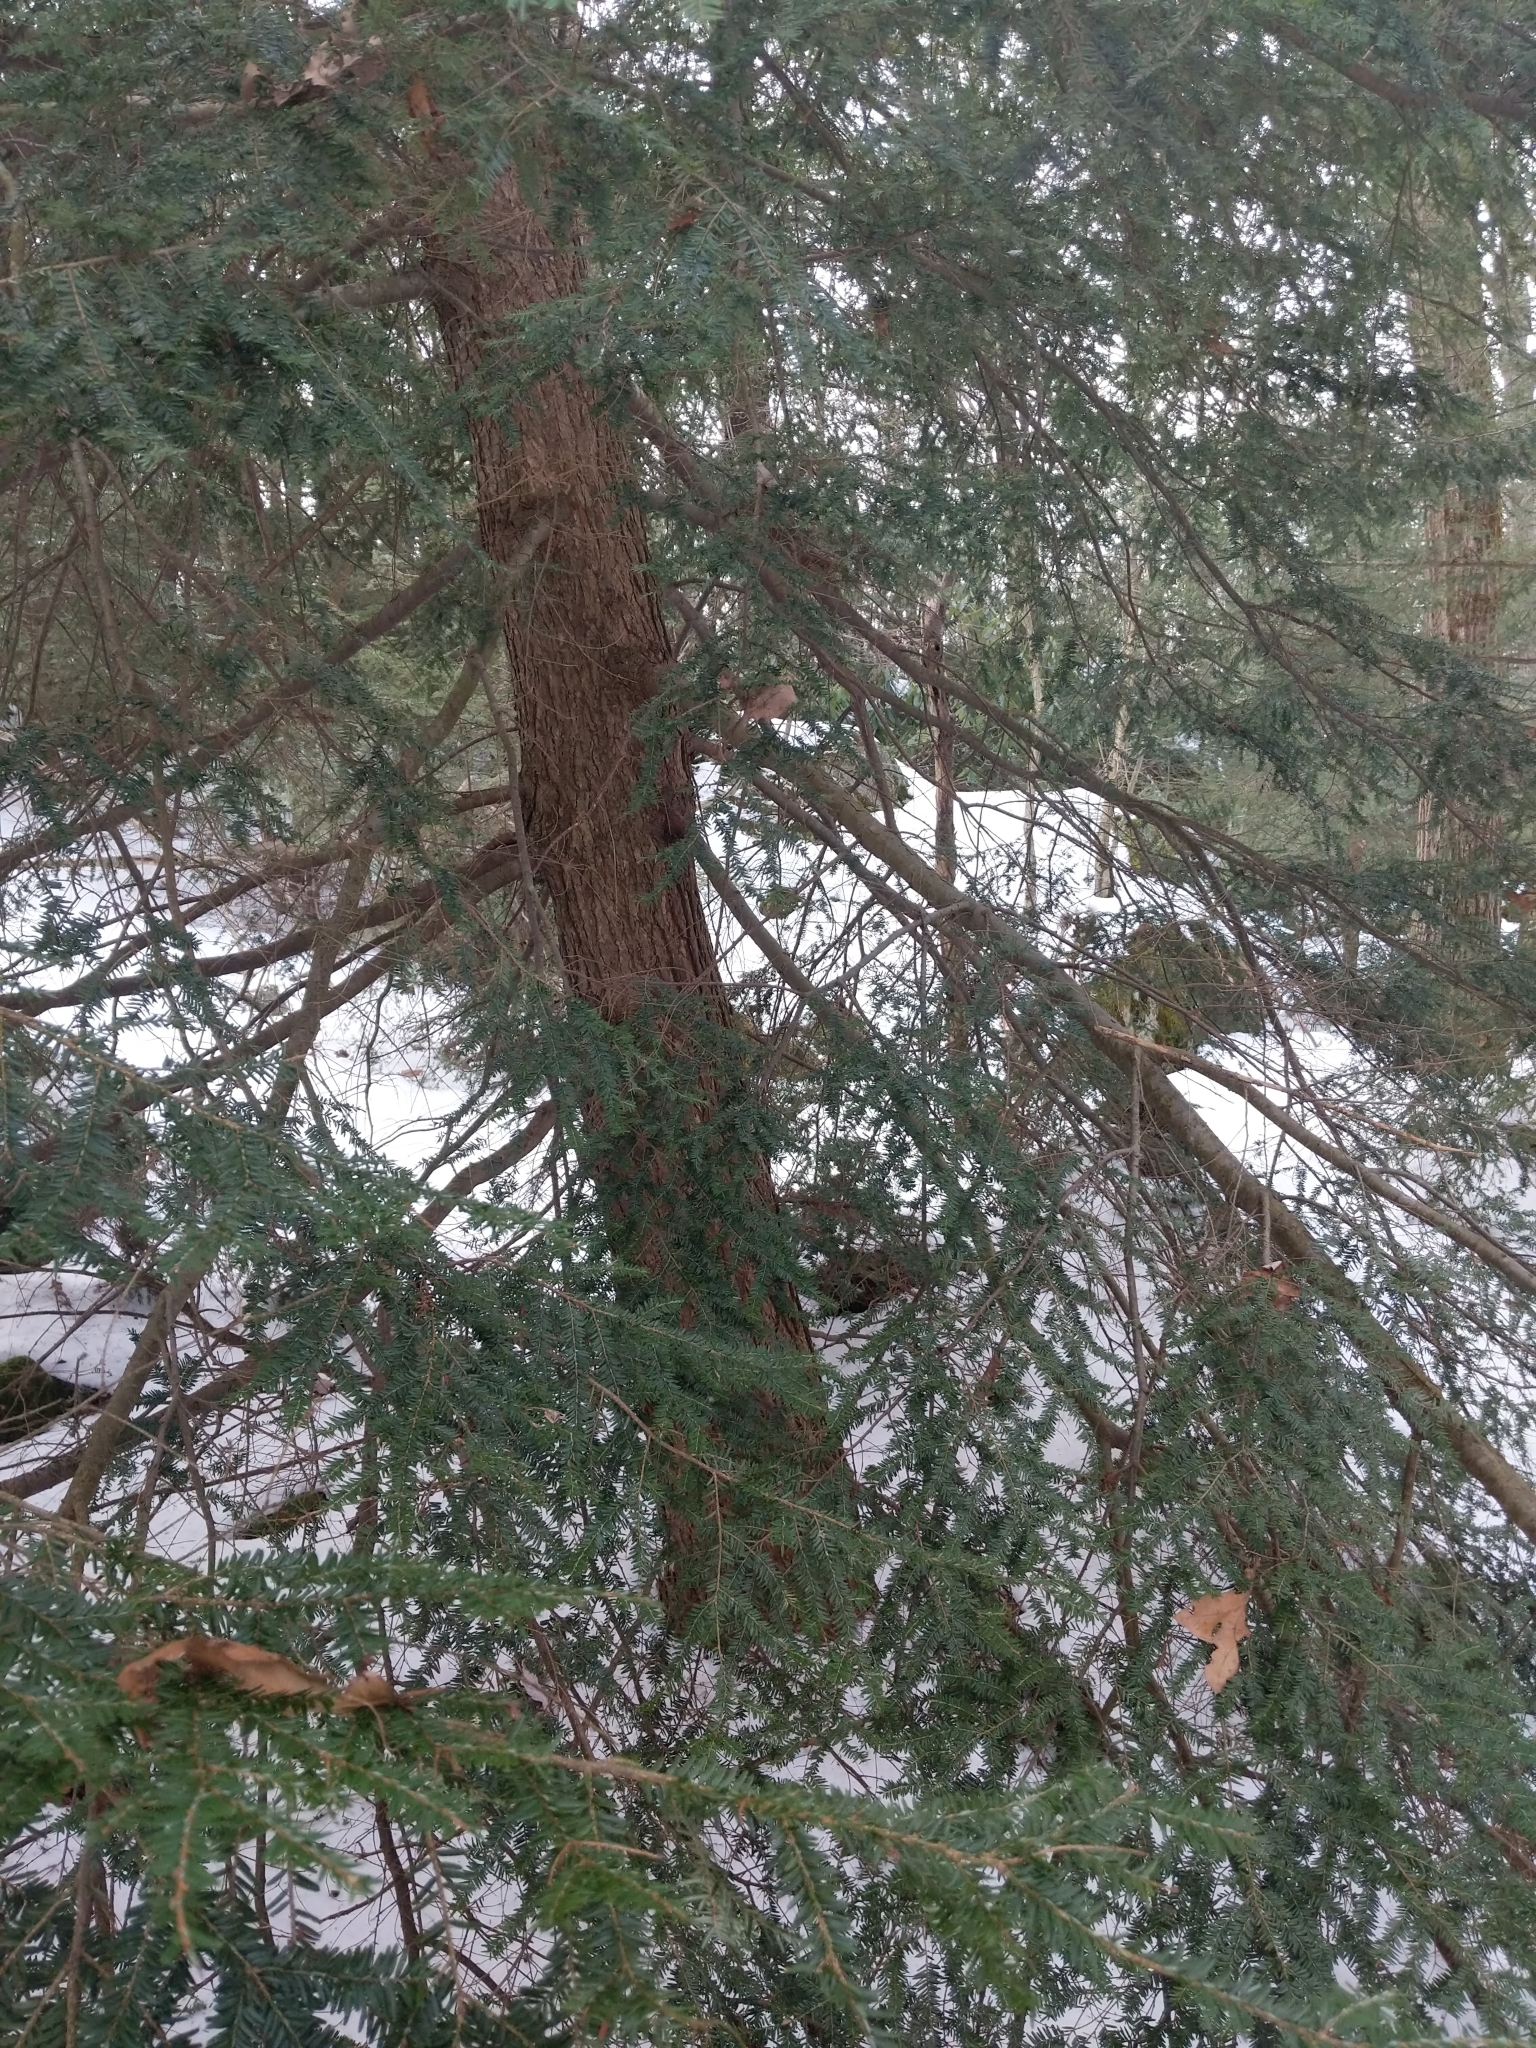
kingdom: Plantae
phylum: Tracheophyta
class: Pinopsida
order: Pinales
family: Pinaceae
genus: Tsuga
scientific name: Tsuga canadensis
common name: Eastern hemlock
